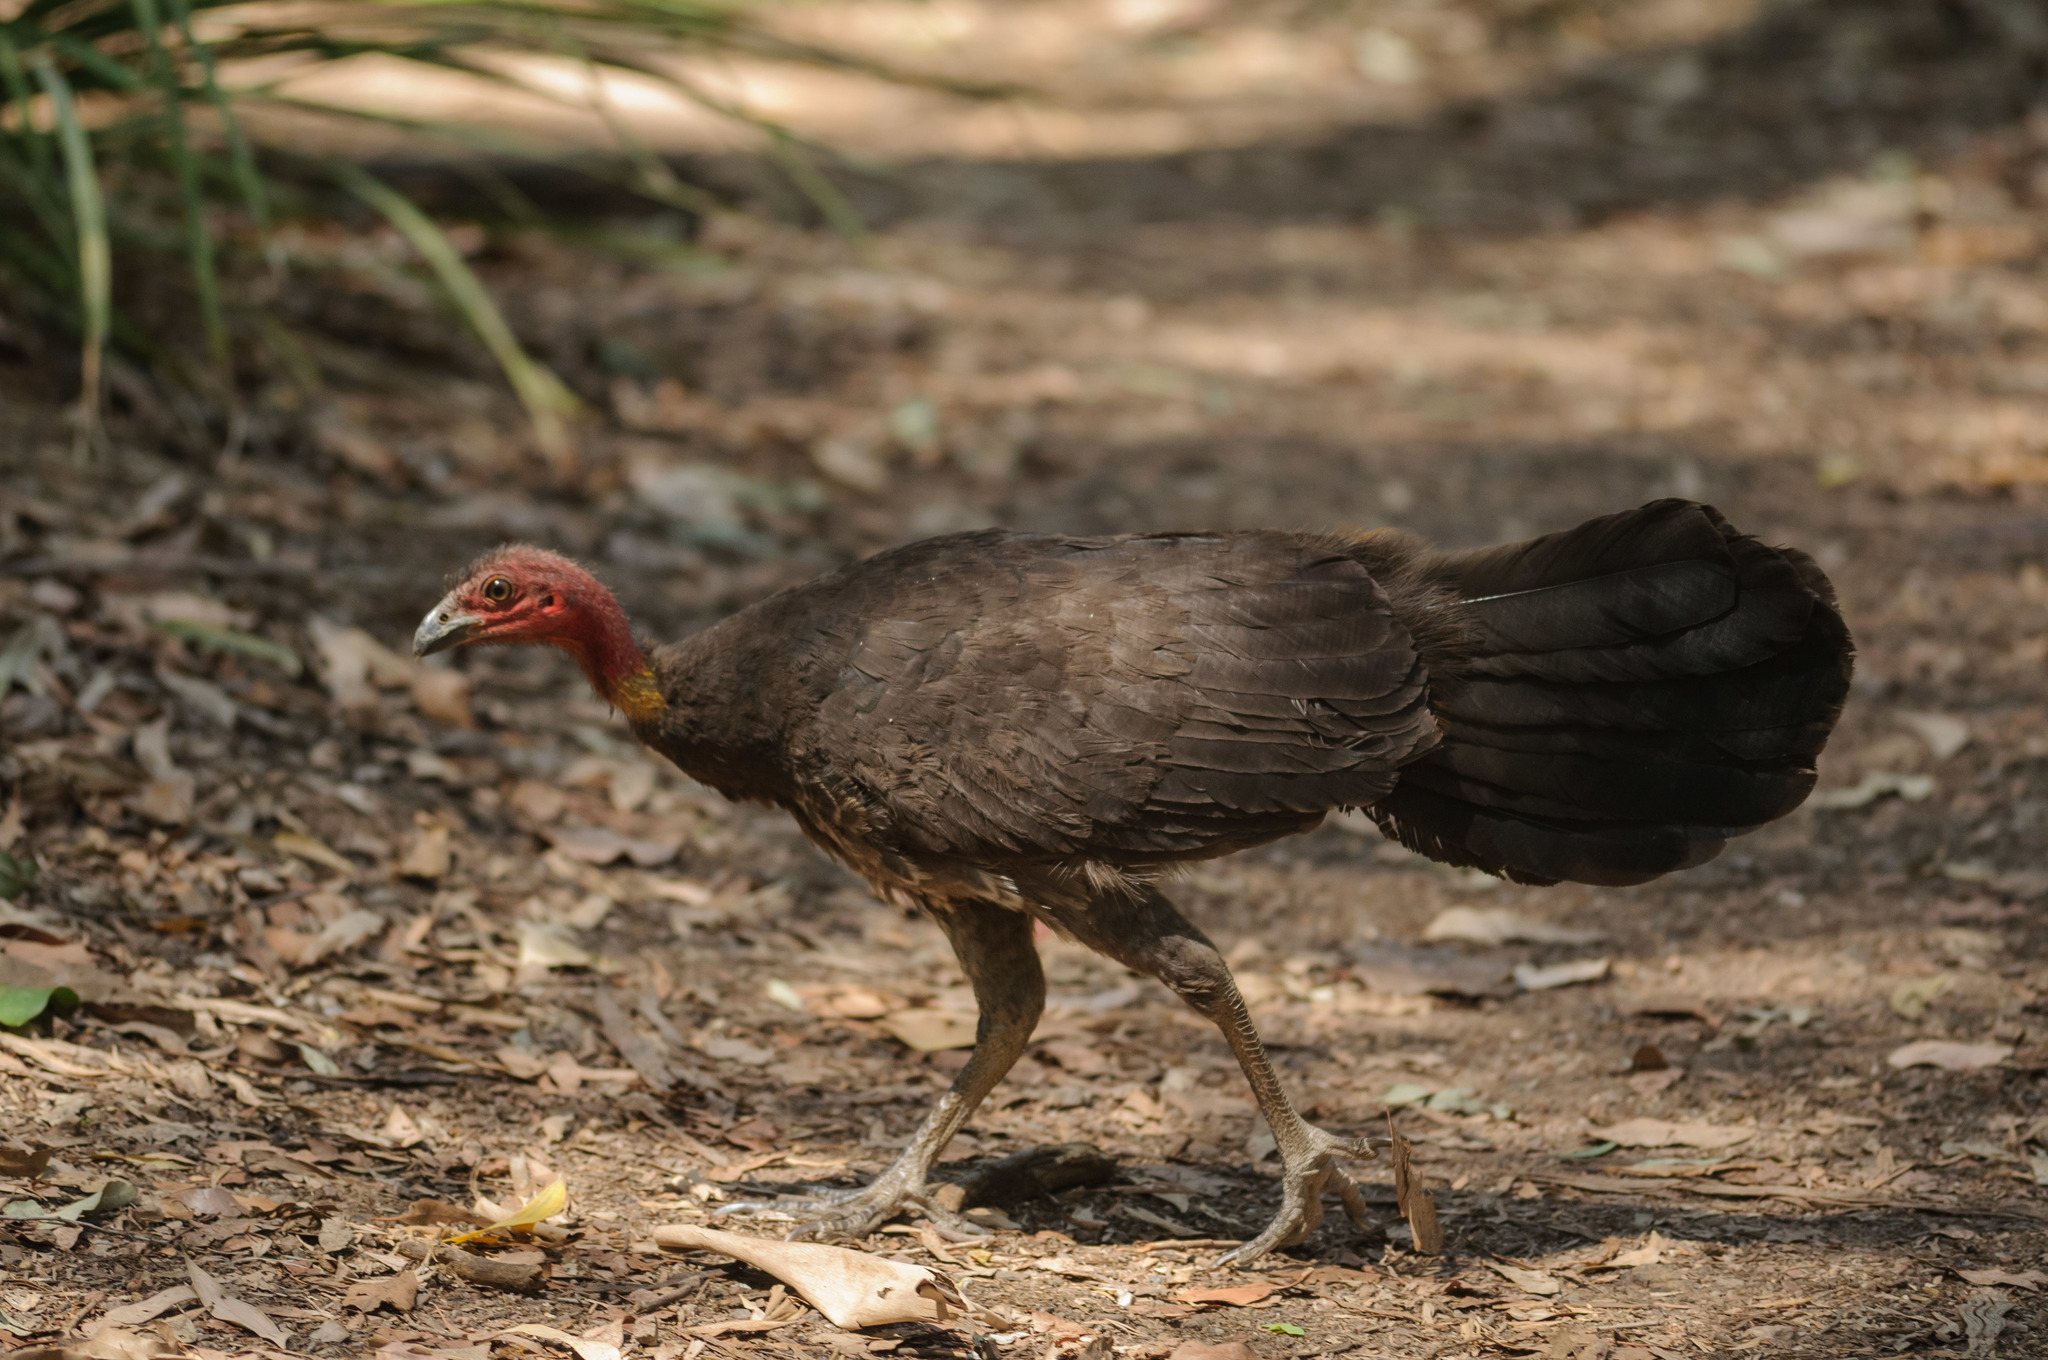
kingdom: Animalia
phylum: Chordata
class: Aves
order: Galliformes
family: Megapodiidae
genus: Alectura
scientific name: Alectura lathami
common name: Australian brushturkey
